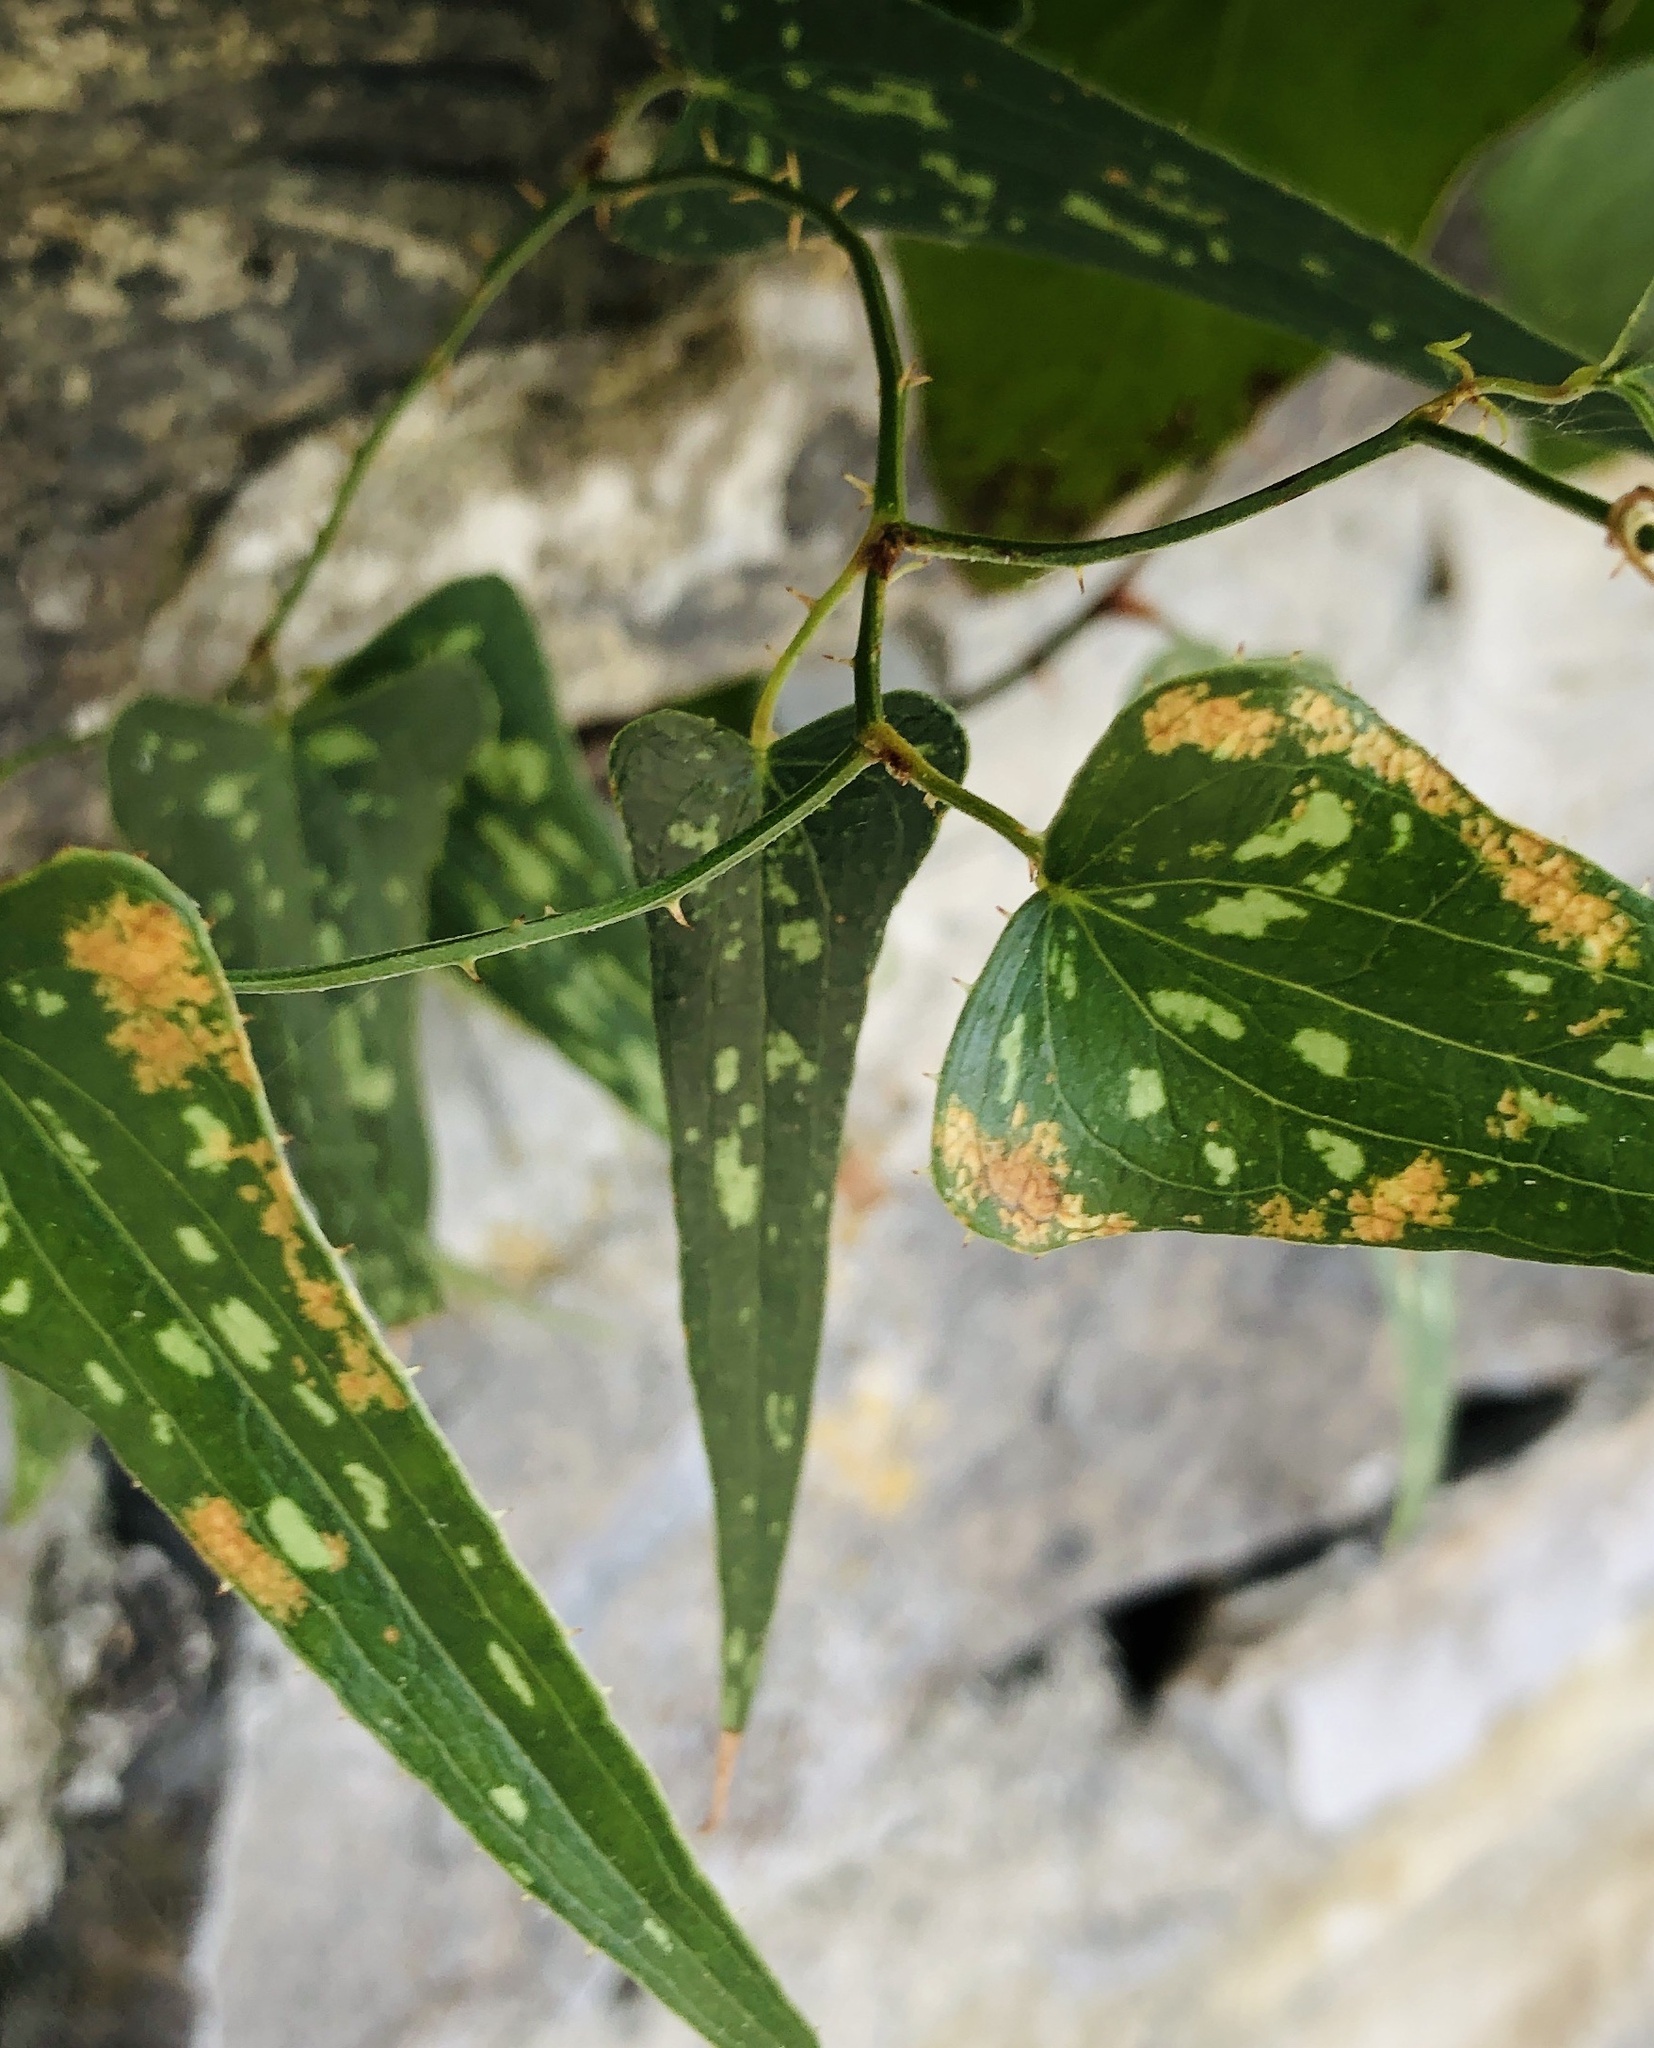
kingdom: Plantae
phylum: Tracheophyta
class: Liliopsida
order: Liliales
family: Smilacaceae
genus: Smilax
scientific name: Smilax aspera
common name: Common smilax
